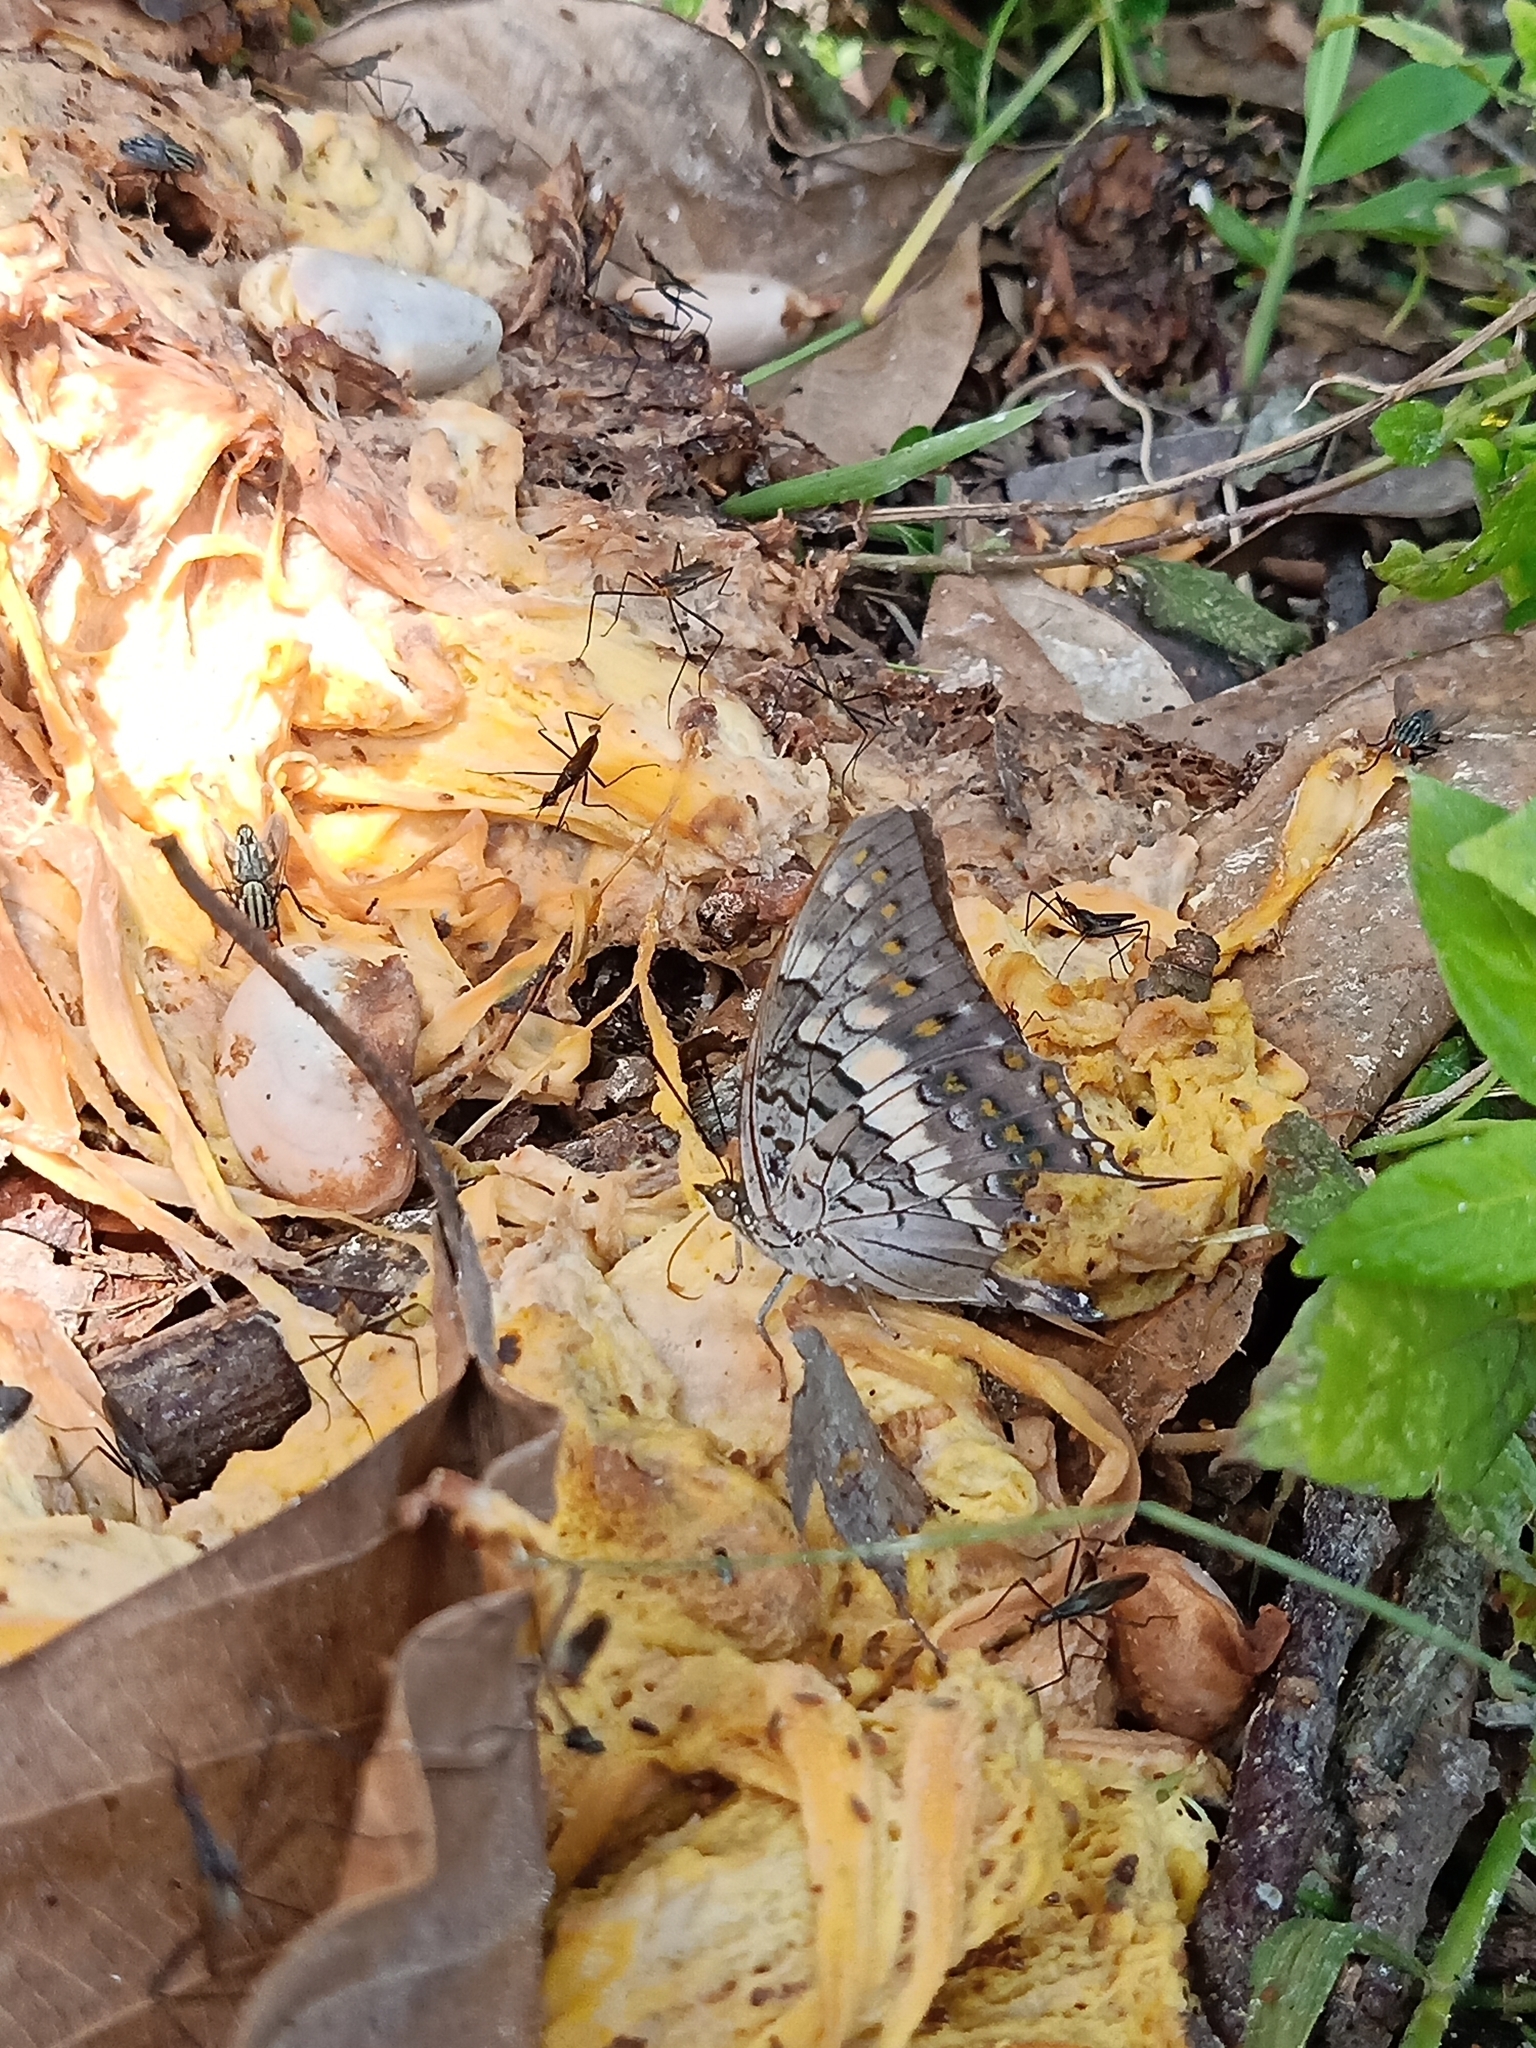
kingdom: Animalia
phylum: Arthropoda
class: Insecta
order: Lepidoptera
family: Nymphalidae
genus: Charaxes
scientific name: Charaxes solon
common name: Black rajah
